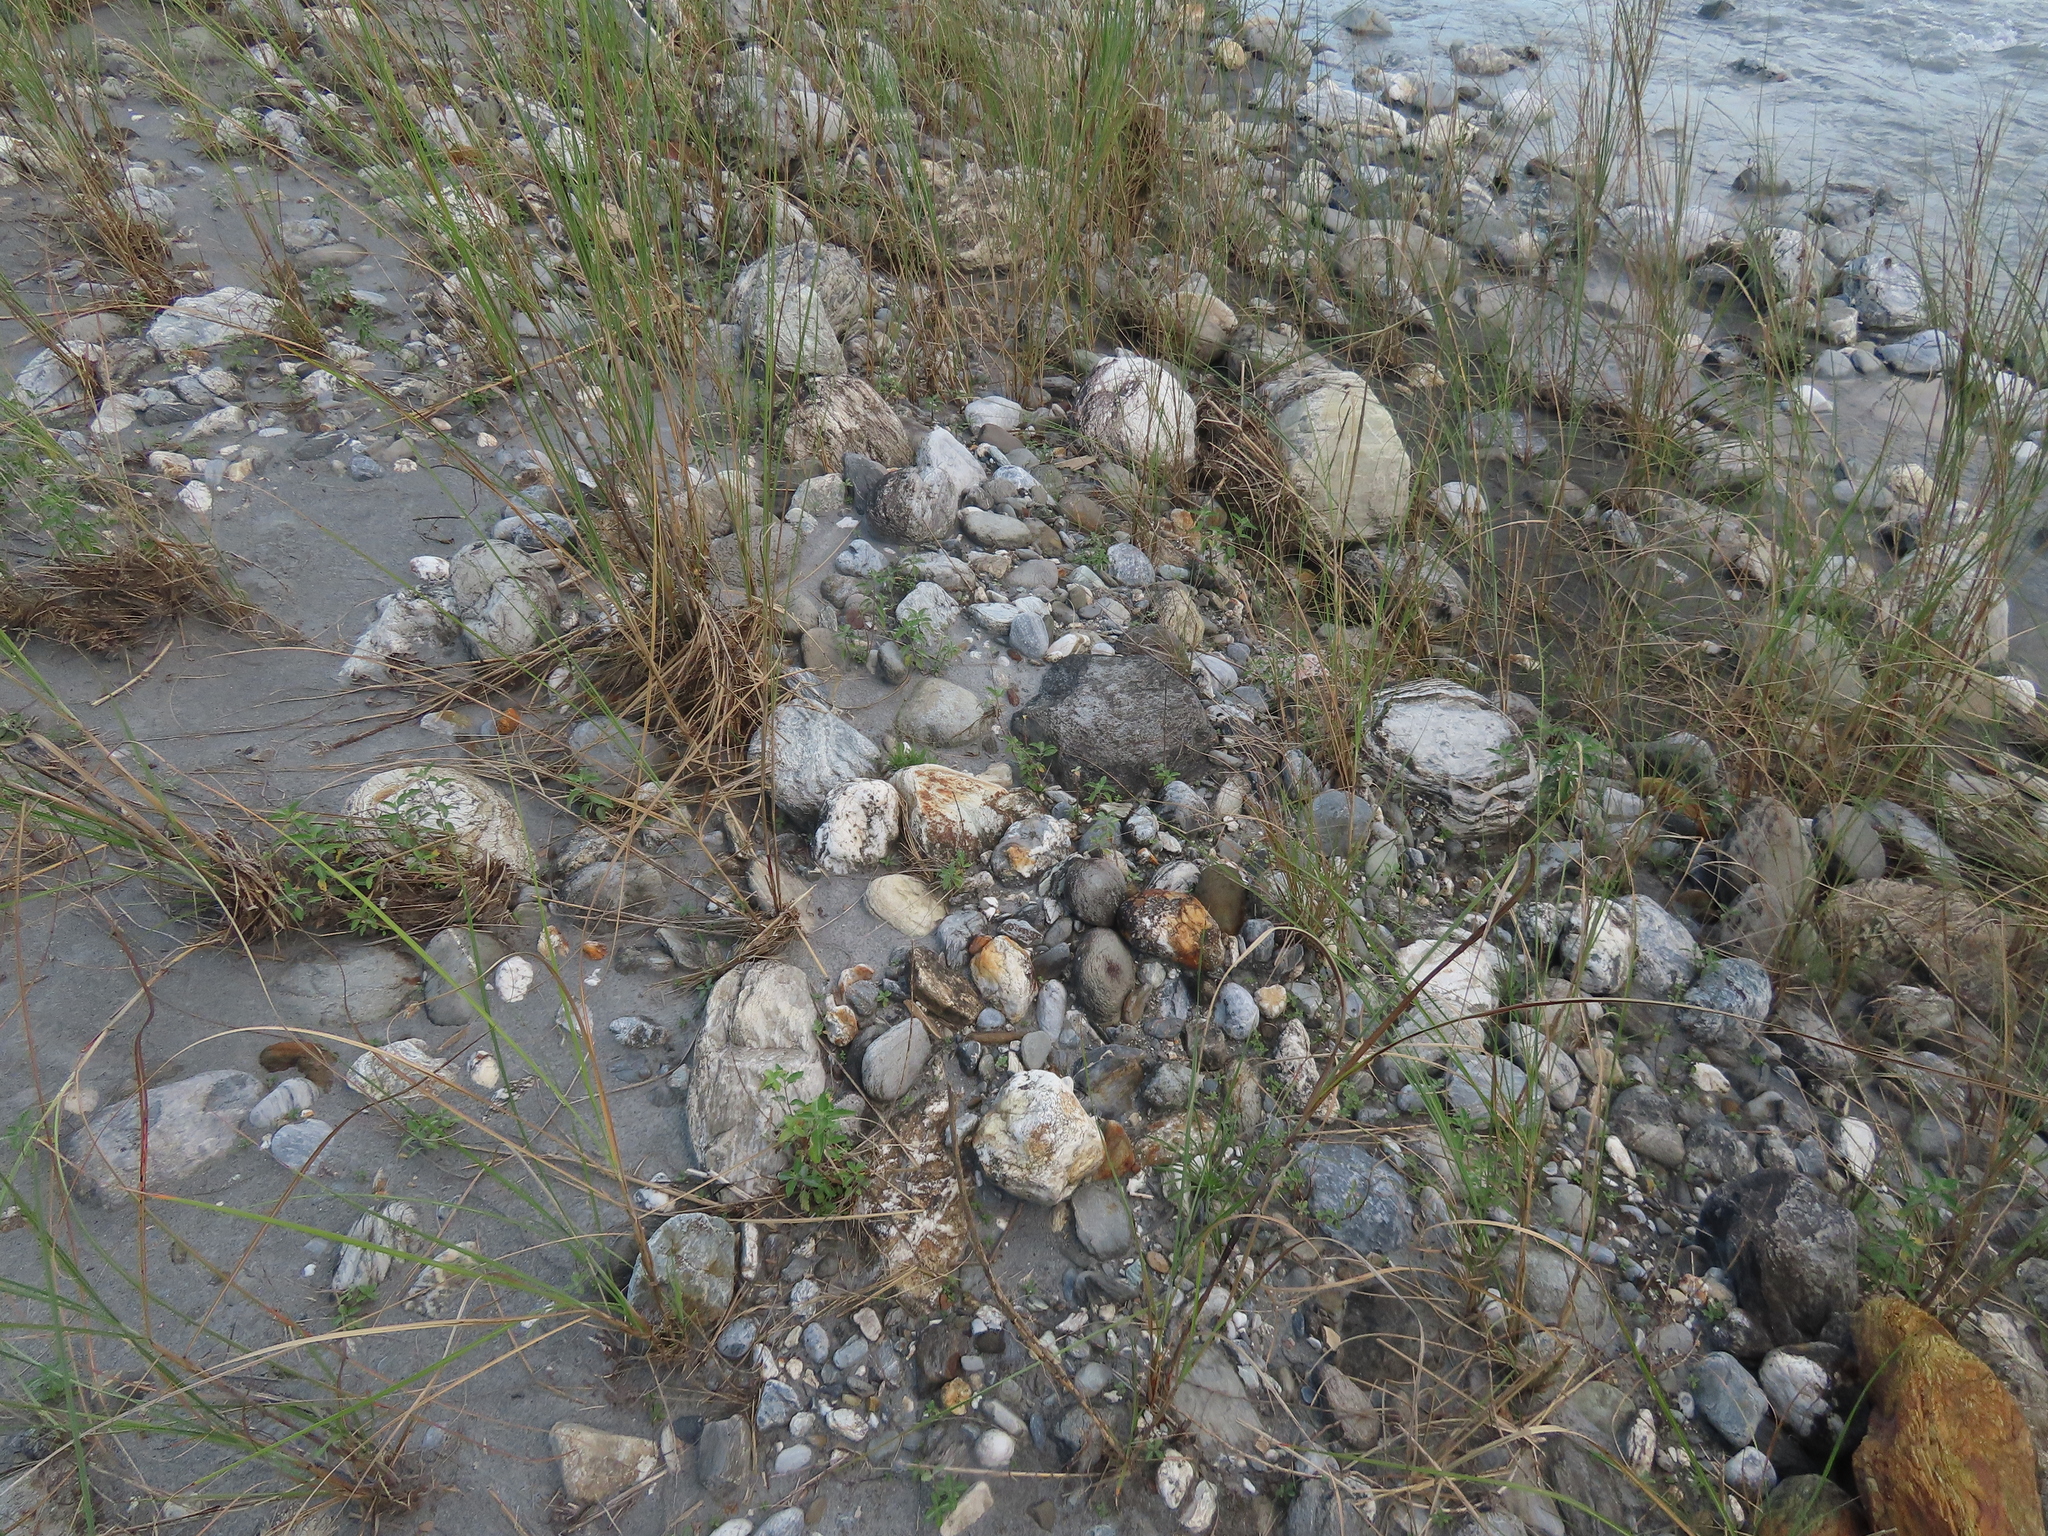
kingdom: Plantae
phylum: Tracheophyta
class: Magnoliopsida
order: Lamiales
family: Lamiaceae
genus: Caryopteris
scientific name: Caryopteris incana
